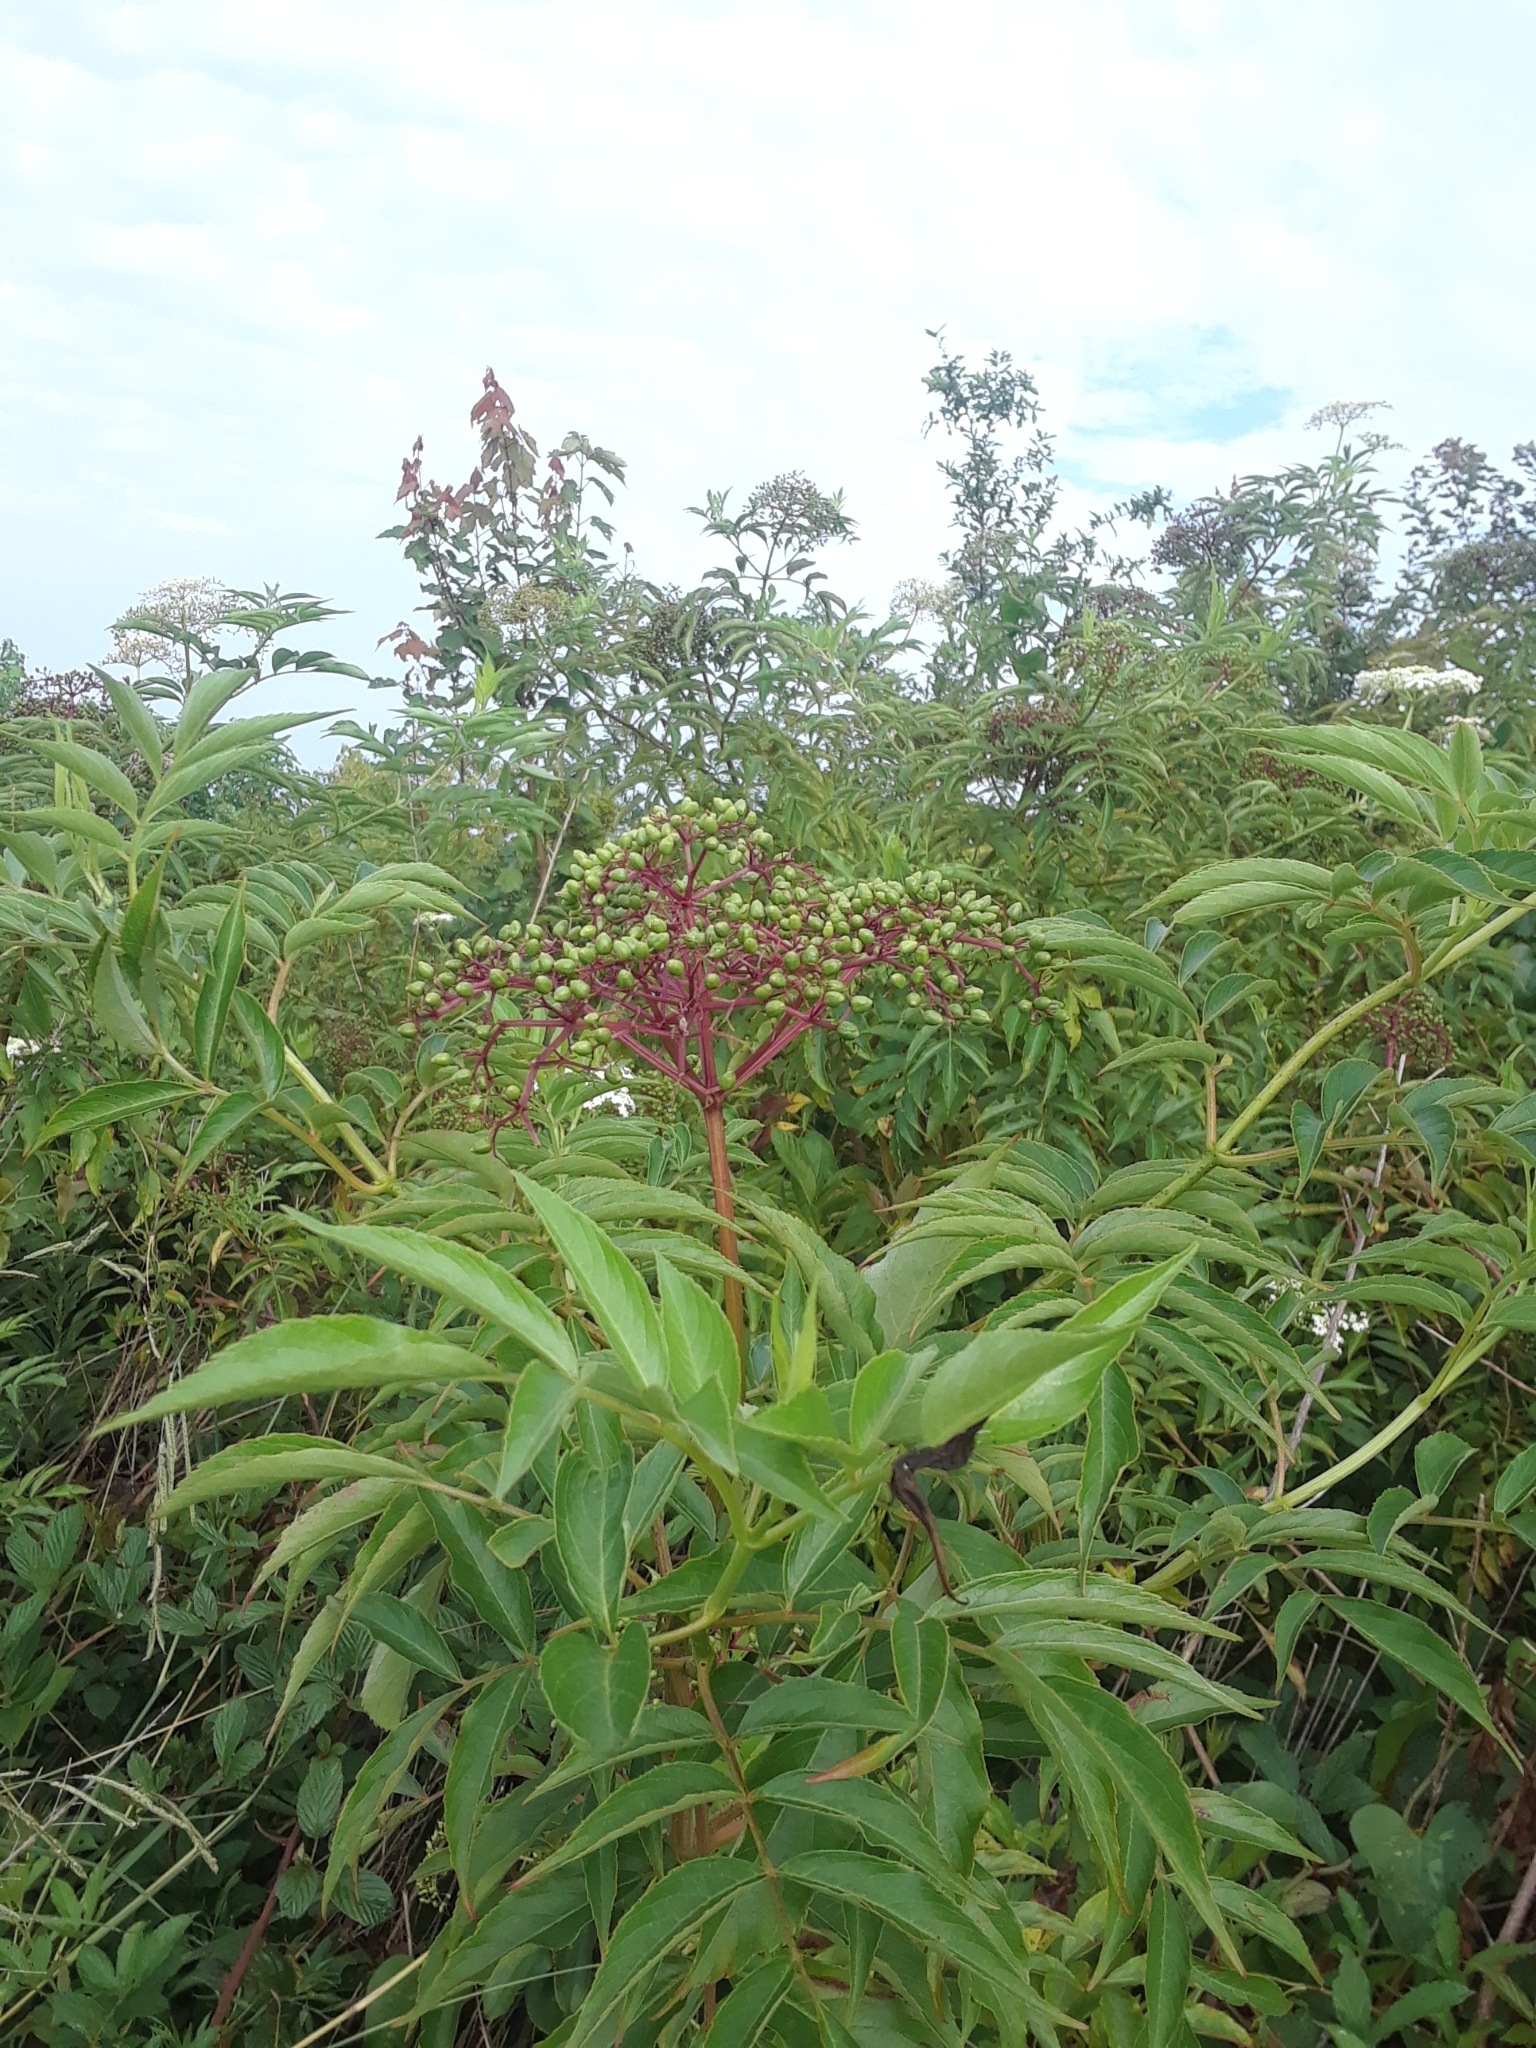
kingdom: Plantae
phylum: Tracheophyta
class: Magnoliopsida
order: Dipsacales
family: Viburnaceae
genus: Sambucus
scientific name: Sambucus canadensis
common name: American elder
